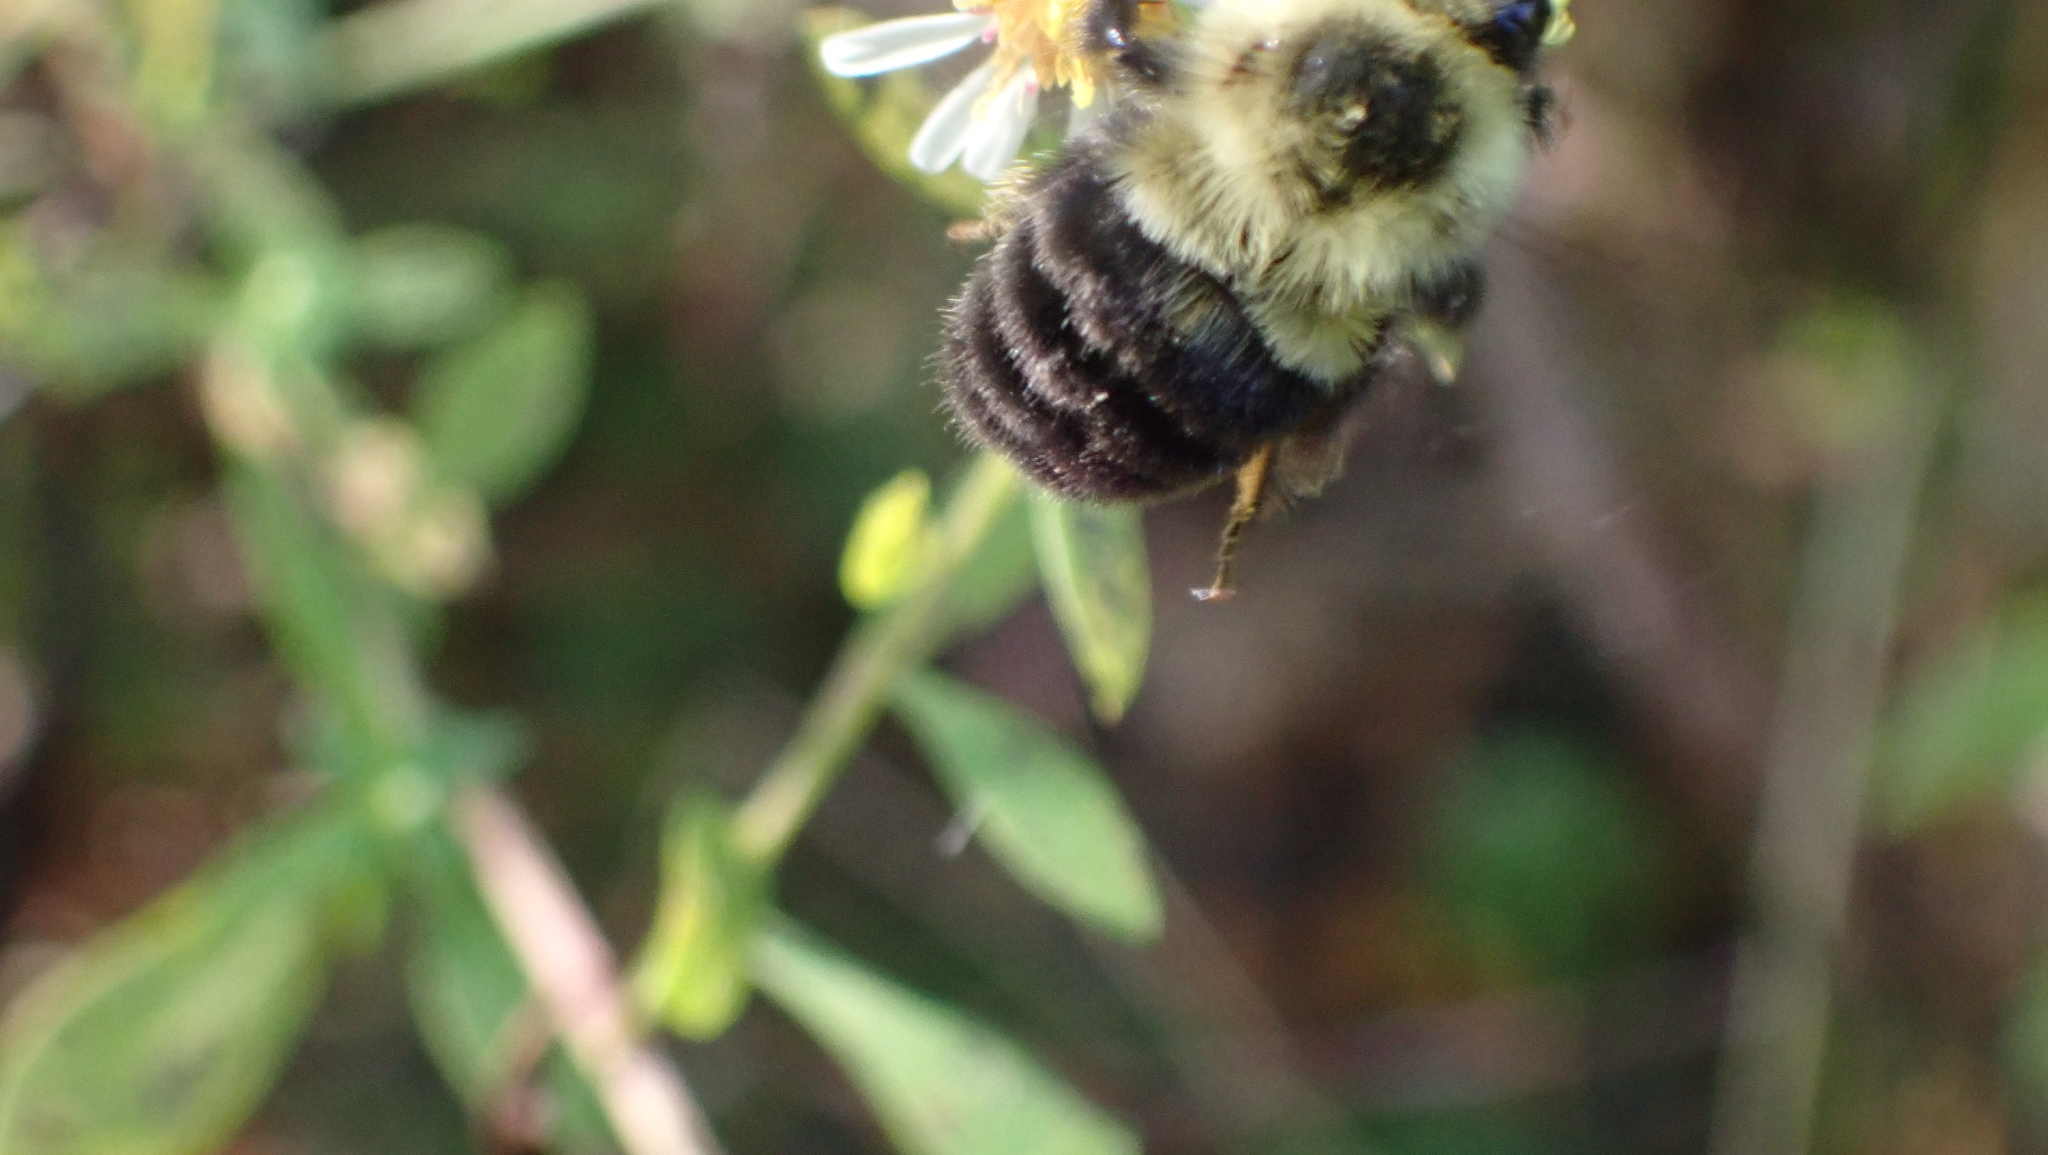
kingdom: Animalia
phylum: Arthropoda
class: Insecta
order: Hymenoptera
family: Apidae
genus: Bombus
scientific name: Bombus impatiens
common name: Common eastern bumble bee
